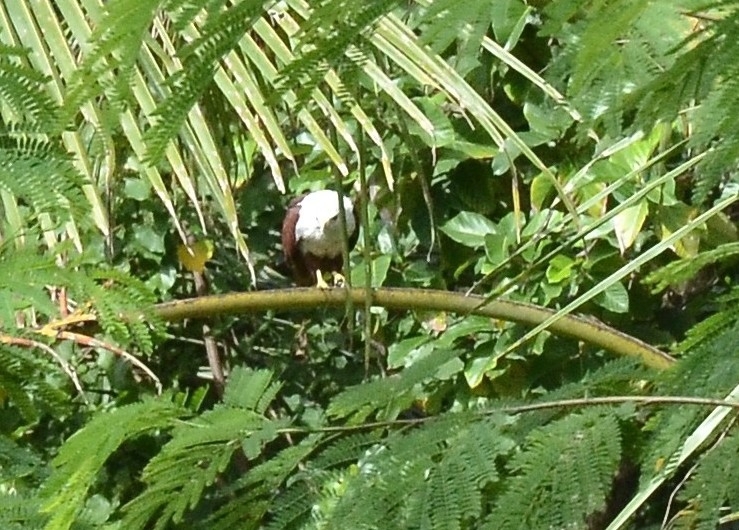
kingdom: Animalia
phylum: Chordata
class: Aves
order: Accipitriformes
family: Accipitridae
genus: Haliastur
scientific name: Haliastur indus
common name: Brahminy kite
